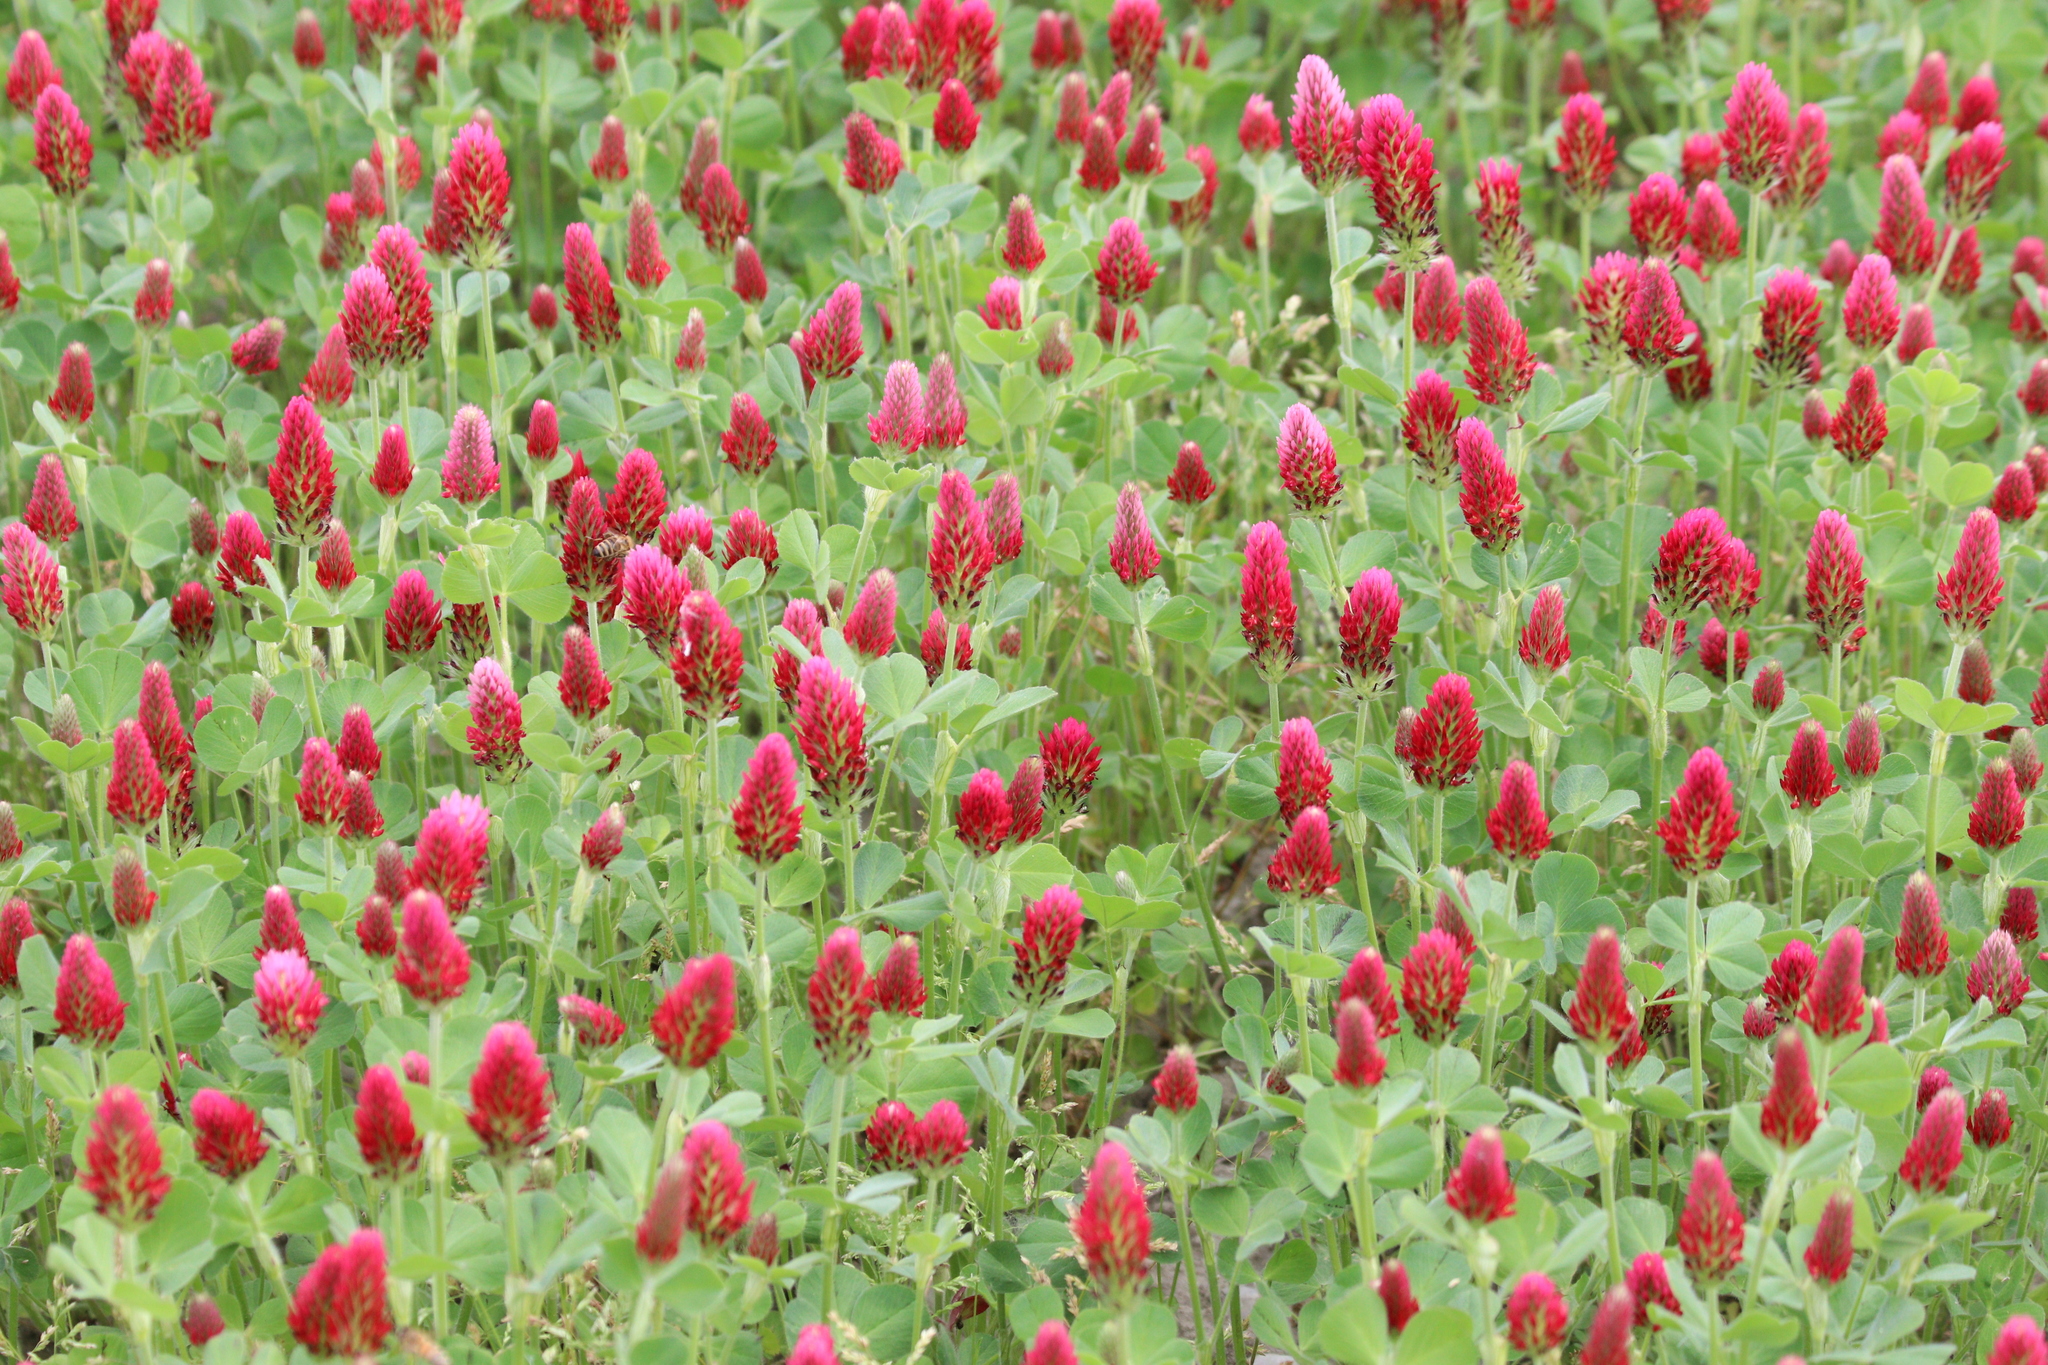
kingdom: Plantae
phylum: Tracheophyta
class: Magnoliopsida
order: Fabales
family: Fabaceae
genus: Trifolium
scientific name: Trifolium incarnatum
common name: Crimson clover
